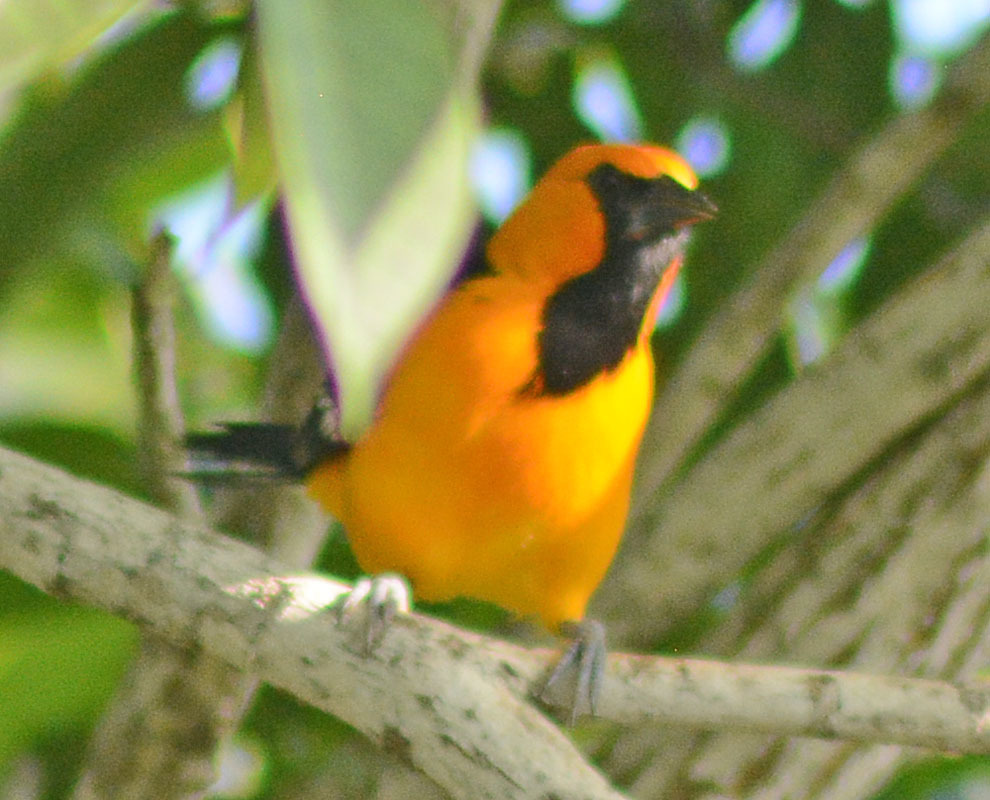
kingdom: Animalia
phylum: Chordata
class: Aves
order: Passeriformes
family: Icteridae
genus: Icterus
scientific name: Icterus gularis
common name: Altamira oriole
